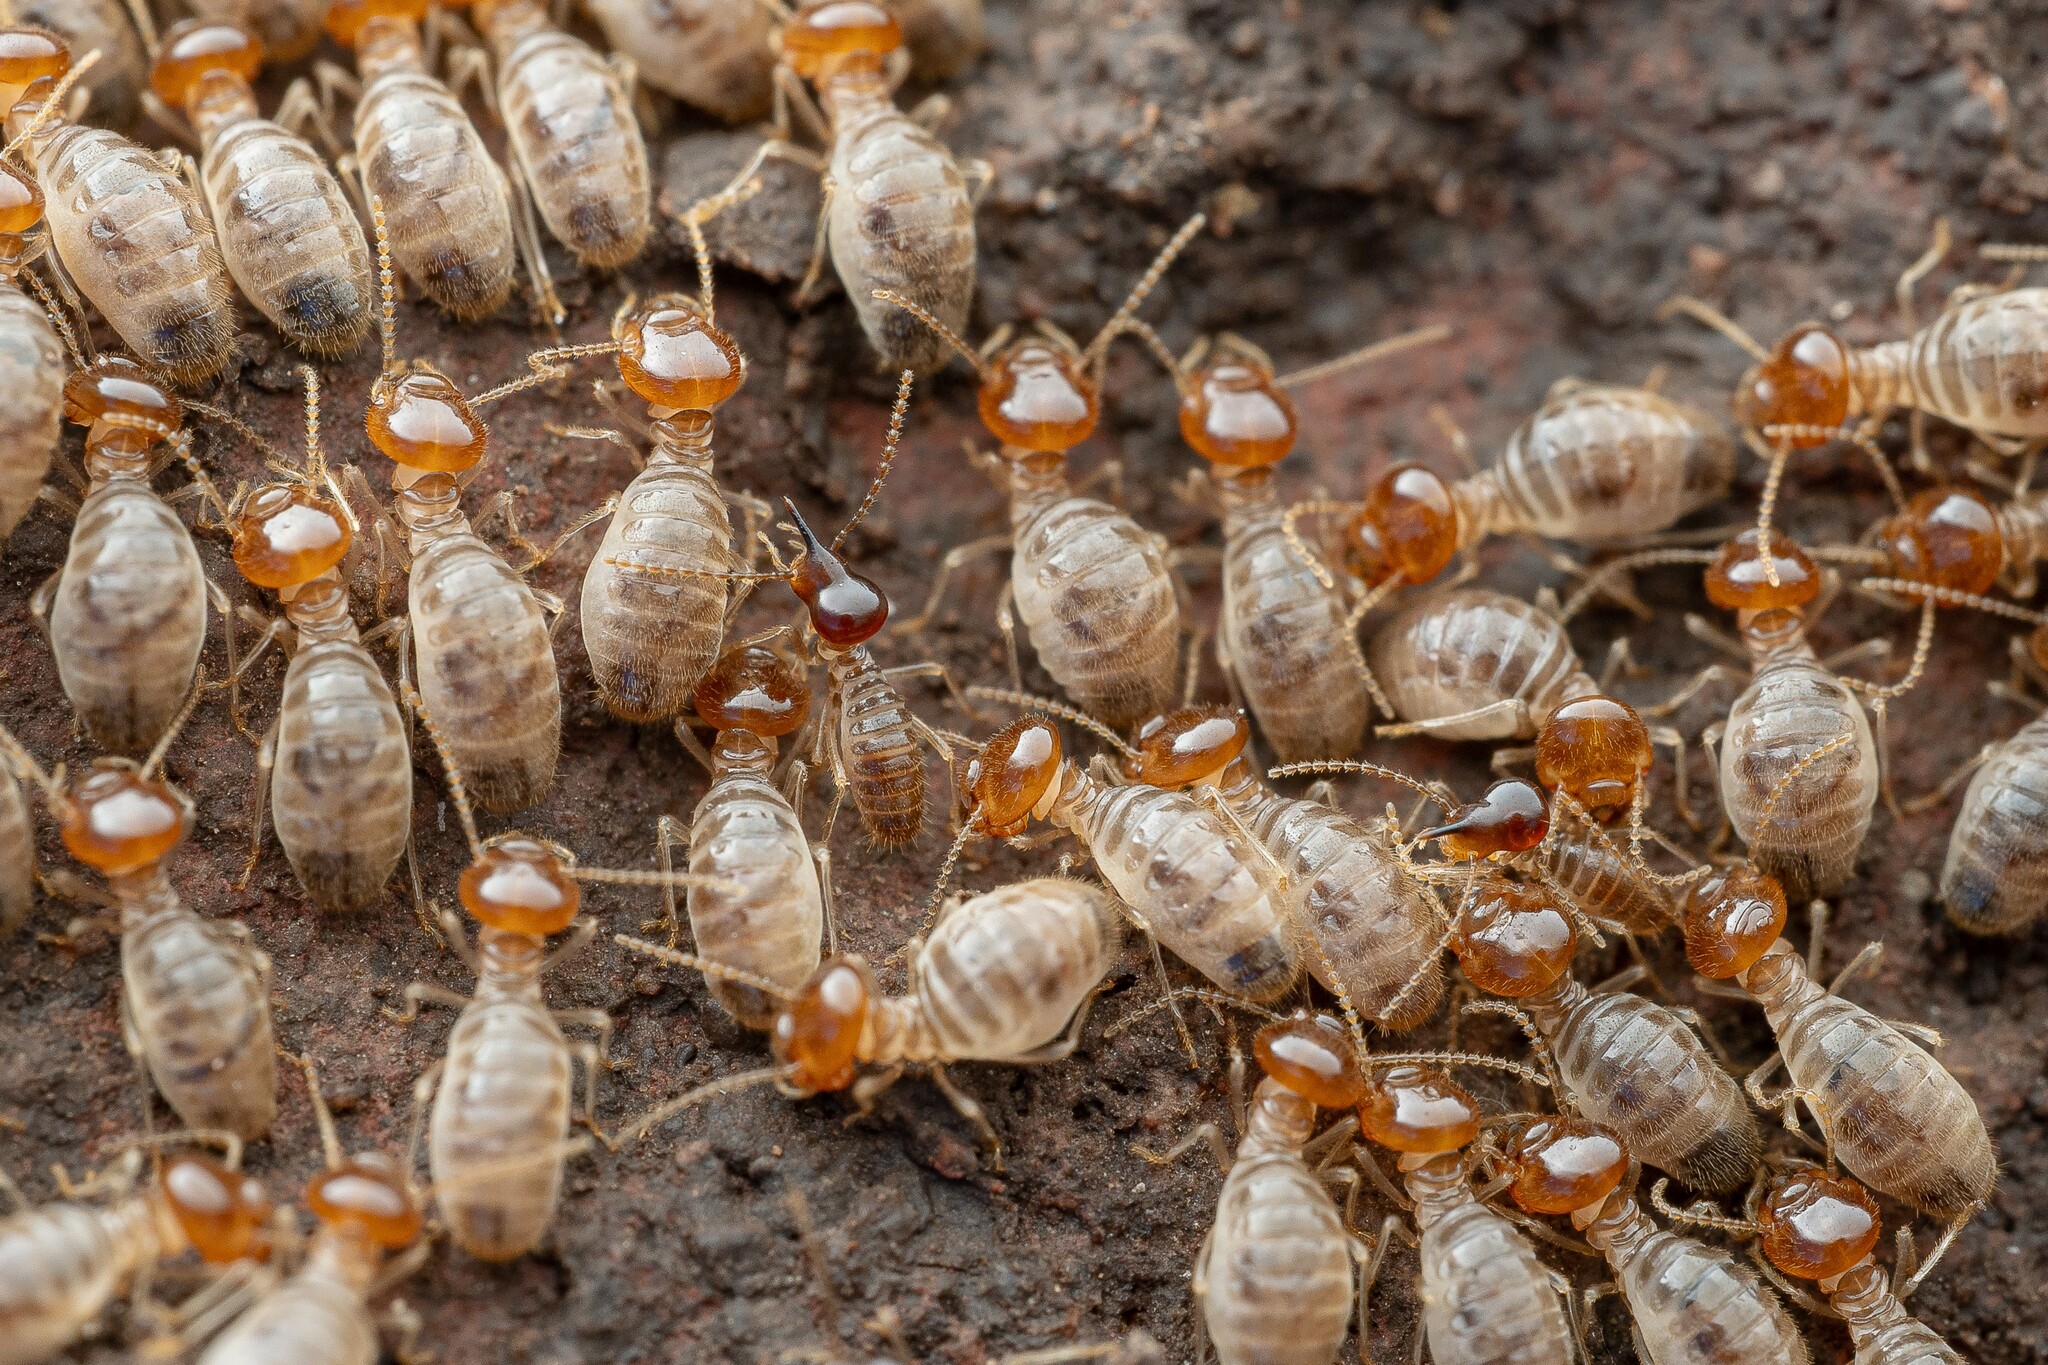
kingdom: Animalia
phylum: Arthropoda
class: Insecta
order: Blattodea
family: Termitidae
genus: Tenuirostritermes
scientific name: Tenuirostritermes tenuirostris
